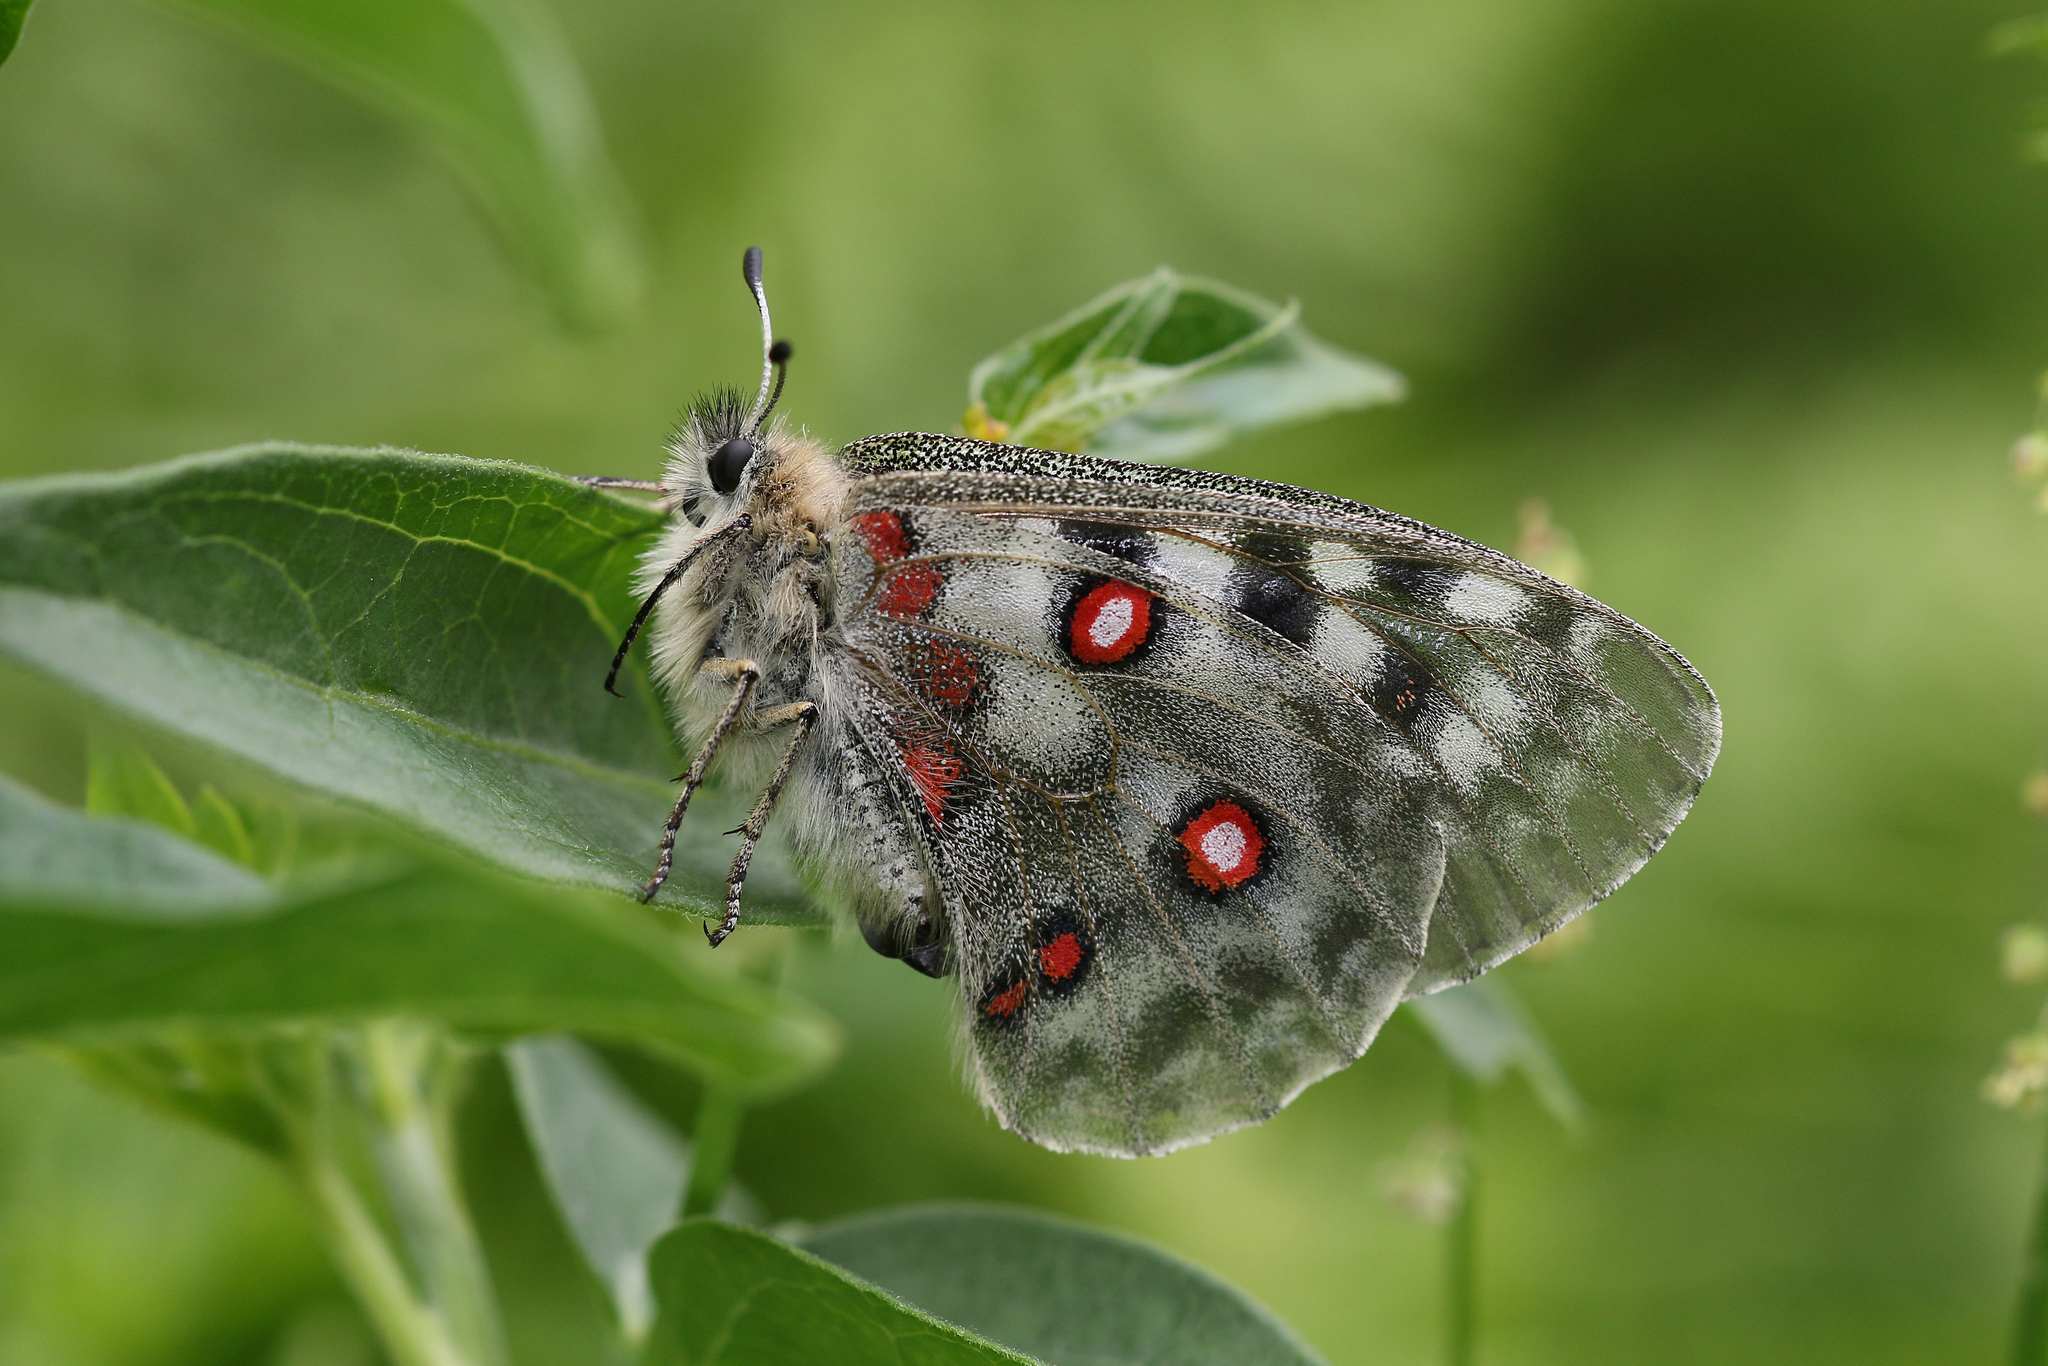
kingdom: Animalia
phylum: Arthropoda
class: Insecta
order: Lepidoptera
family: Papilionidae
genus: Parnassius
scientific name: Parnassius apollo
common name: Apollo
